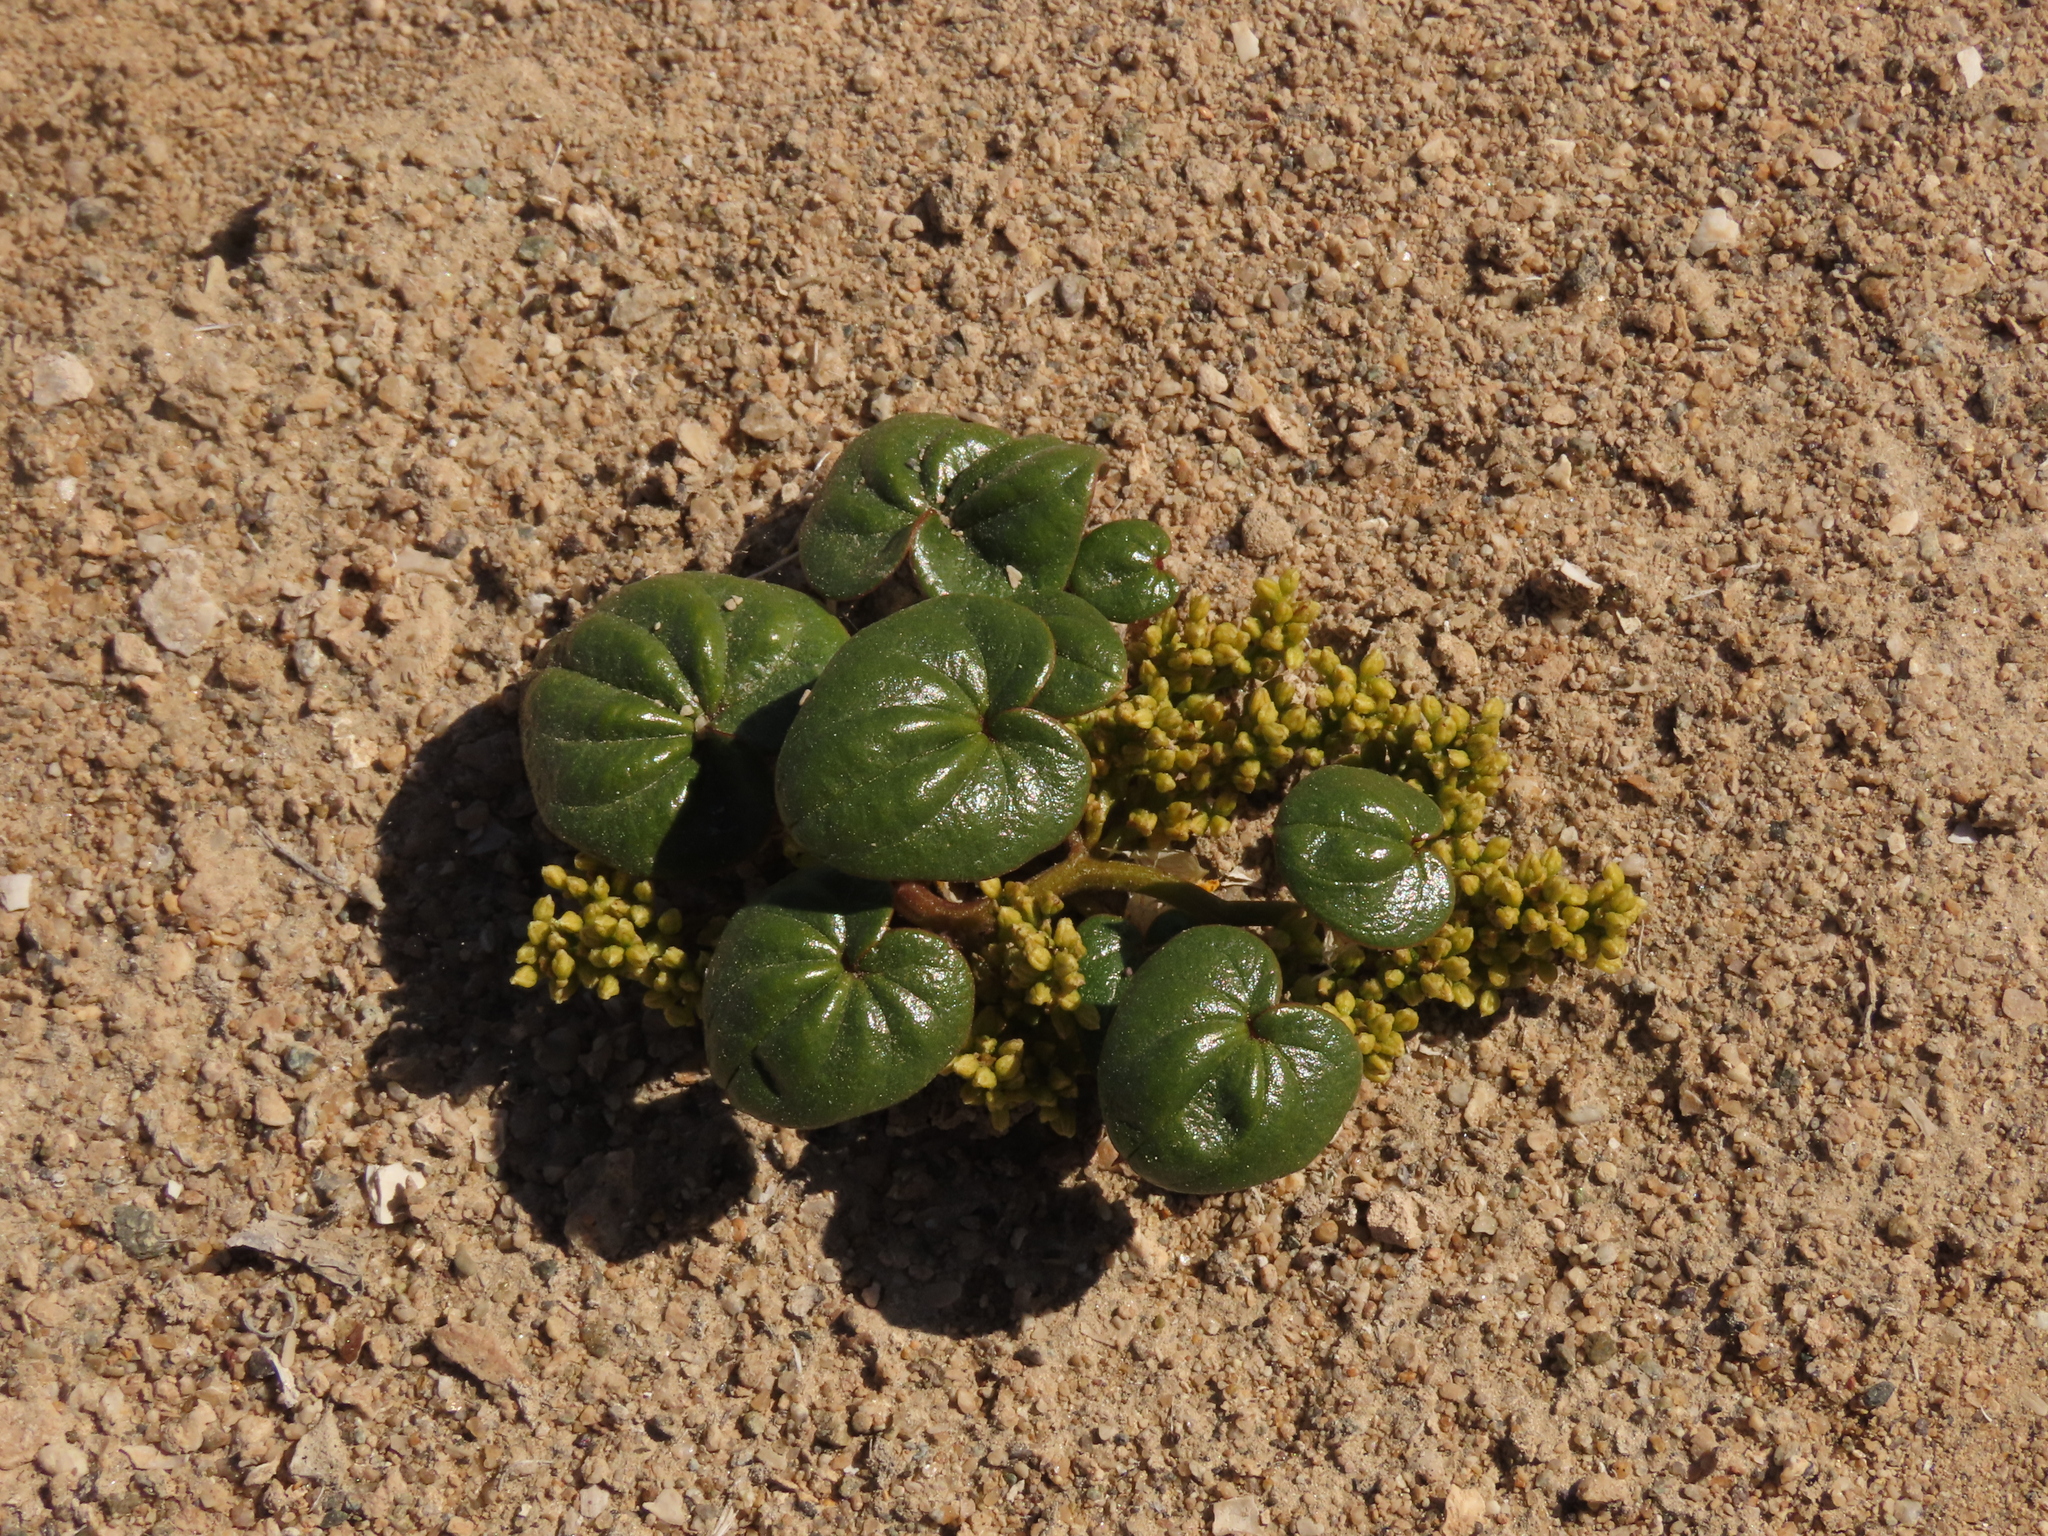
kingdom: Plantae
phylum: Tracheophyta
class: Liliopsida
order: Dioscoreales
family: Dioscoreaceae
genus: Dioscorea
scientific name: Dioscorea fastigiata
